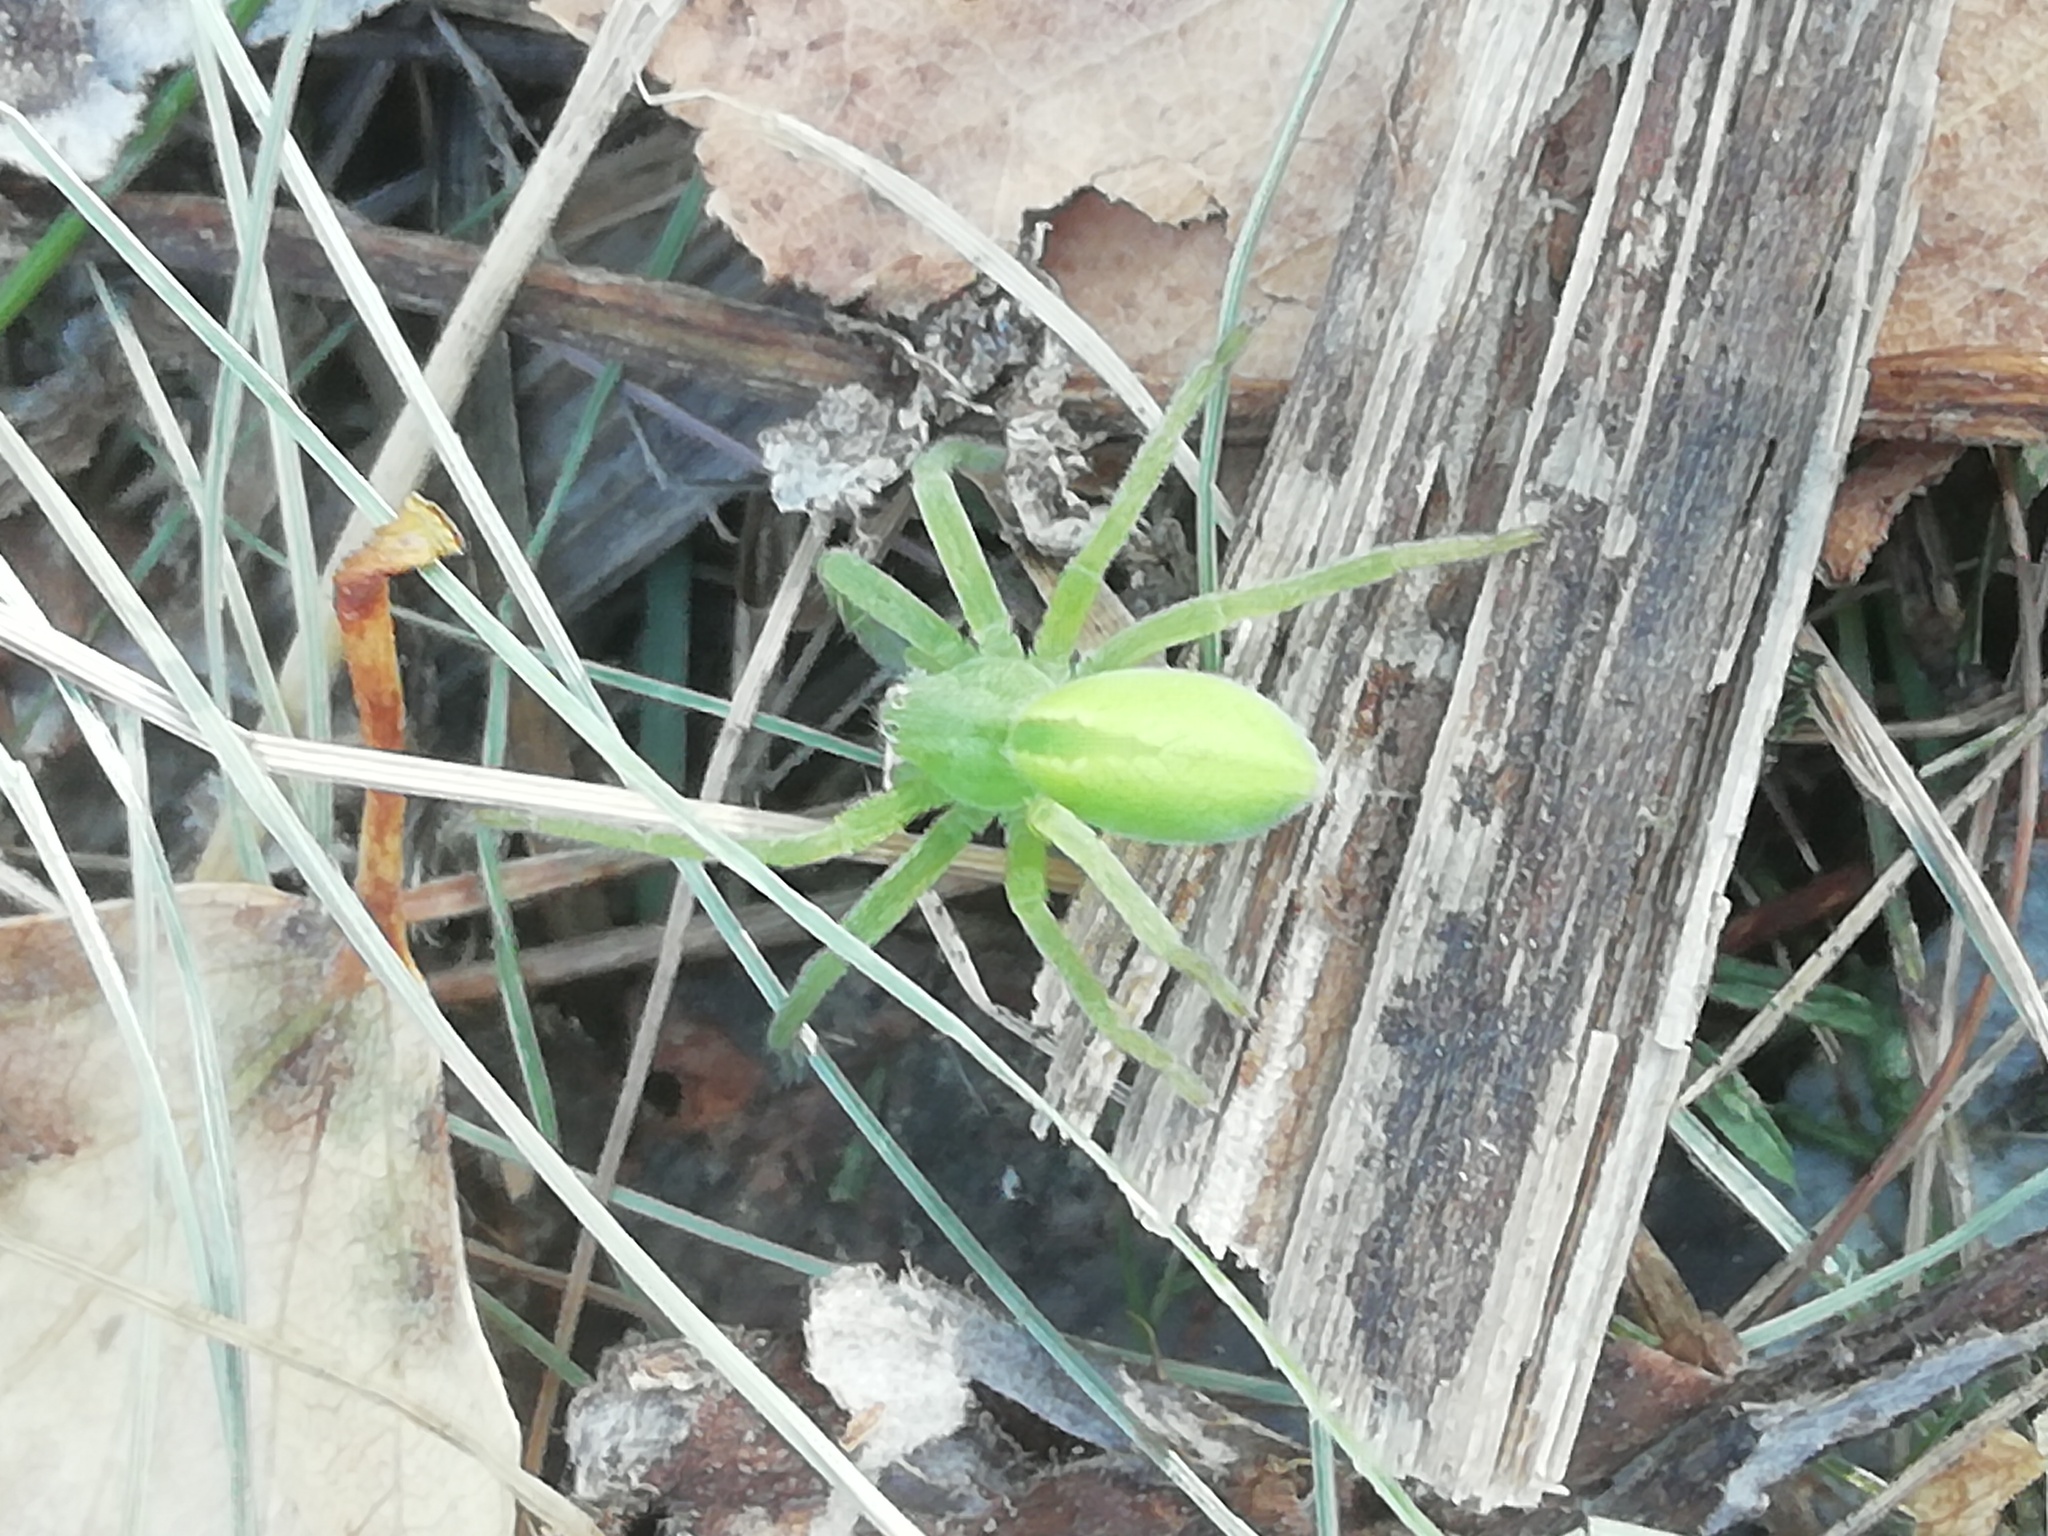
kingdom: Animalia
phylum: Arthropoda
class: Arachnida
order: Araneae
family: Sparassidae
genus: Micrommata
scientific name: Micrommata virescens
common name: Green spider
